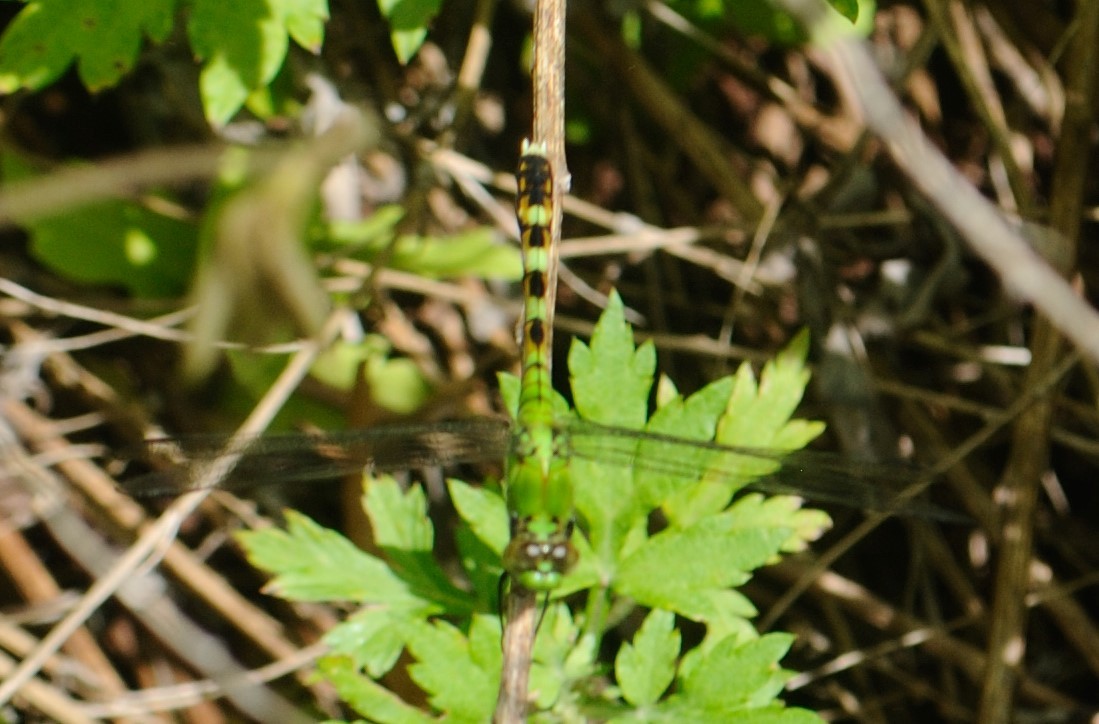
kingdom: Animalia
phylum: Arthropoda
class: Insecta
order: Odonata
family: Libellulidae
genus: Erythemis
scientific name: Erythemis simplicicollis
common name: Eastern pondhawk
